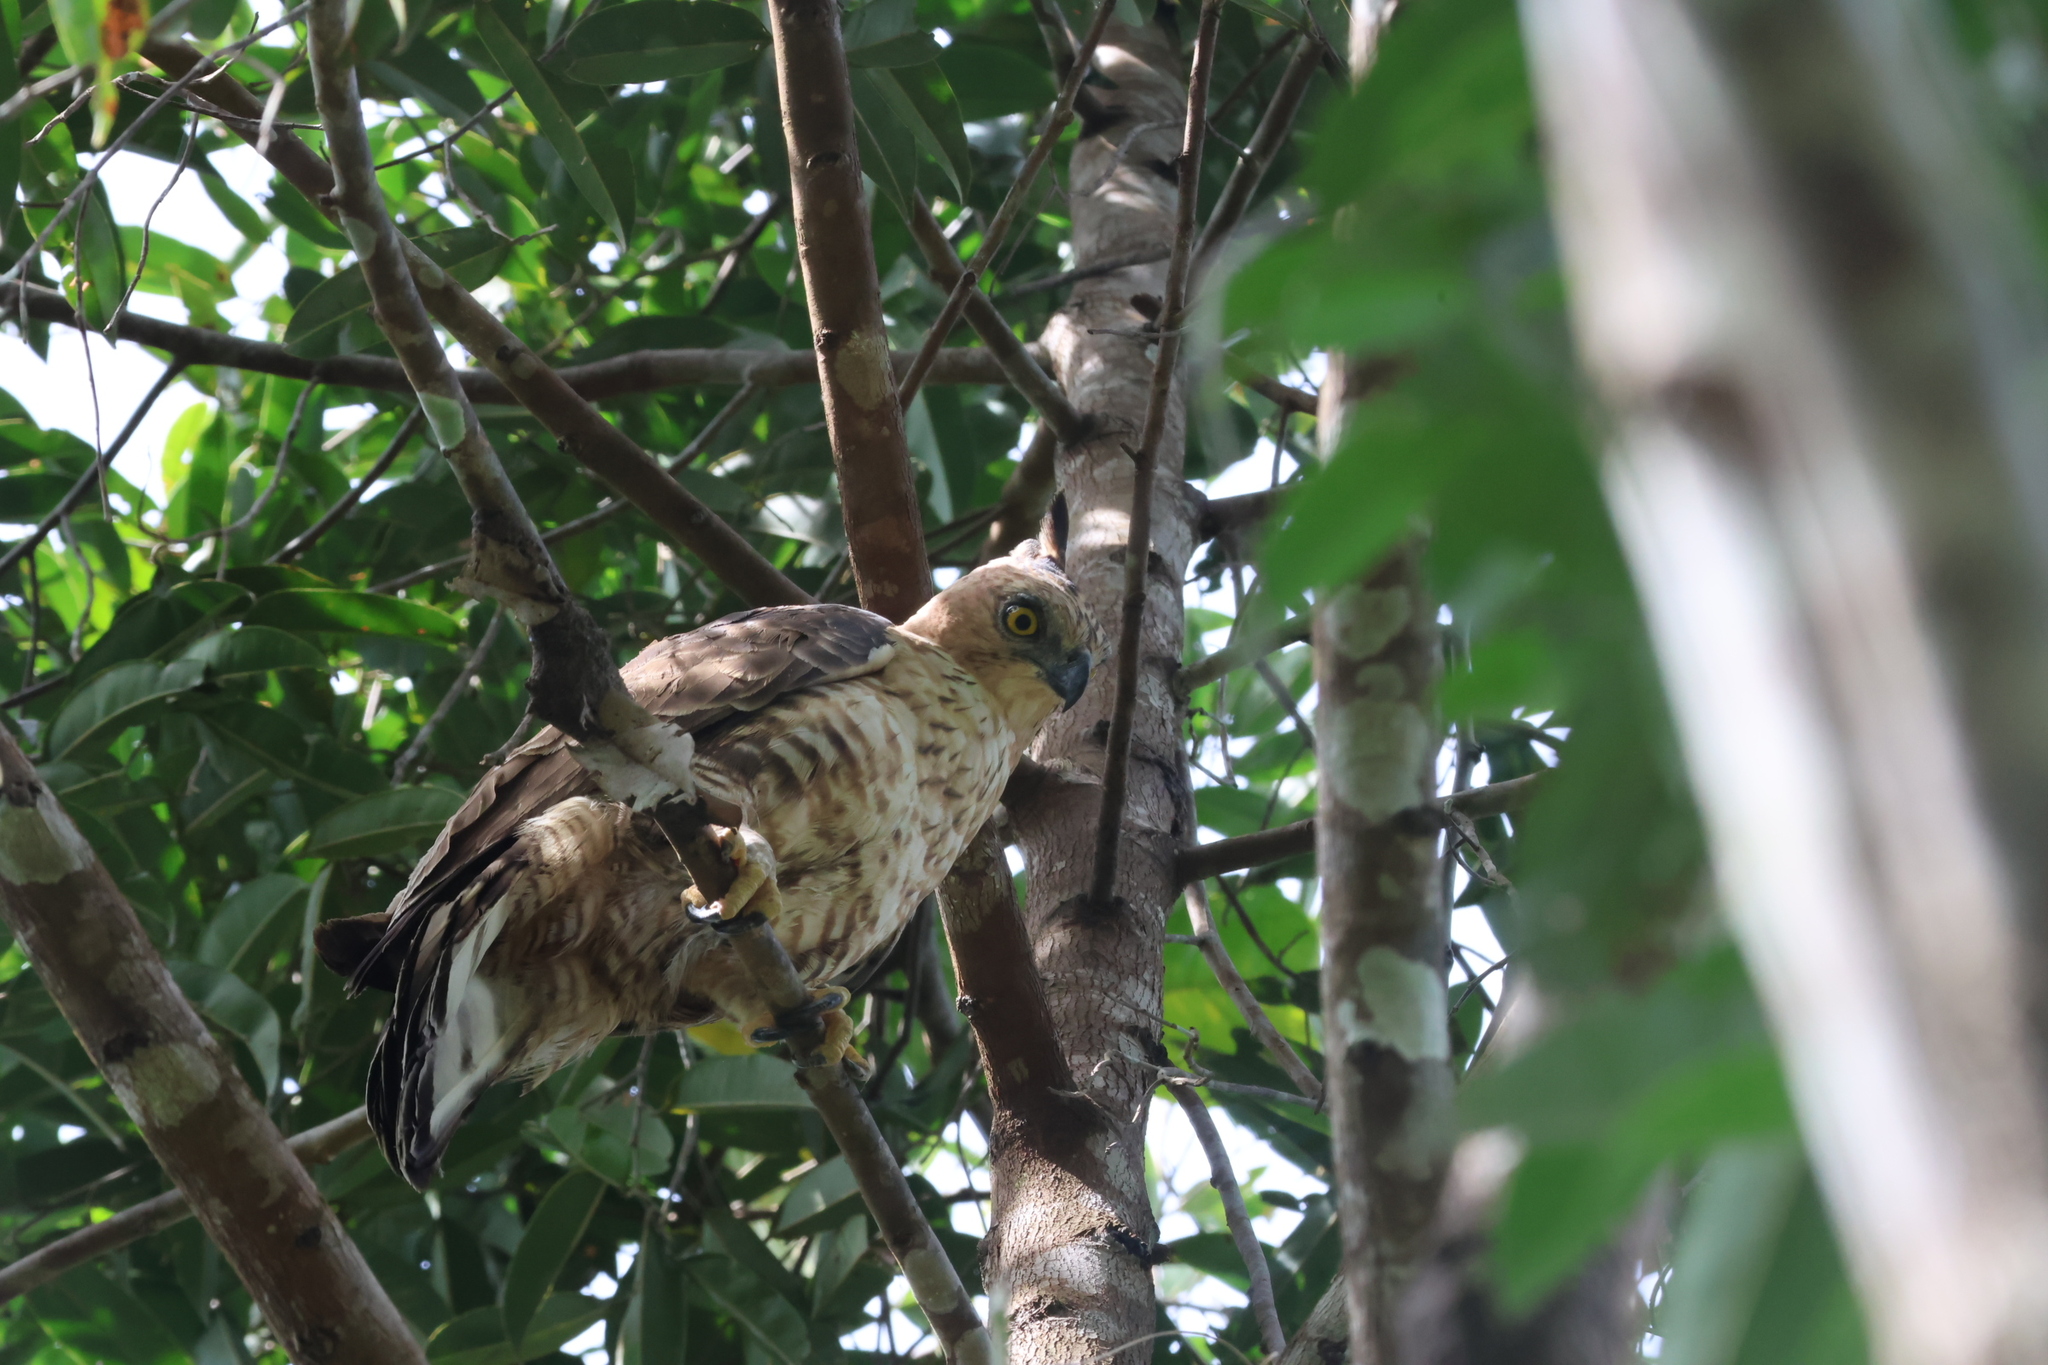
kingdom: Animalia
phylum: Chordata
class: Aves
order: Accipitriformes
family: Accipitridae
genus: Nisaetus
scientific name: Nisaetus nanus
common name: Wallace's hawk-eagle
